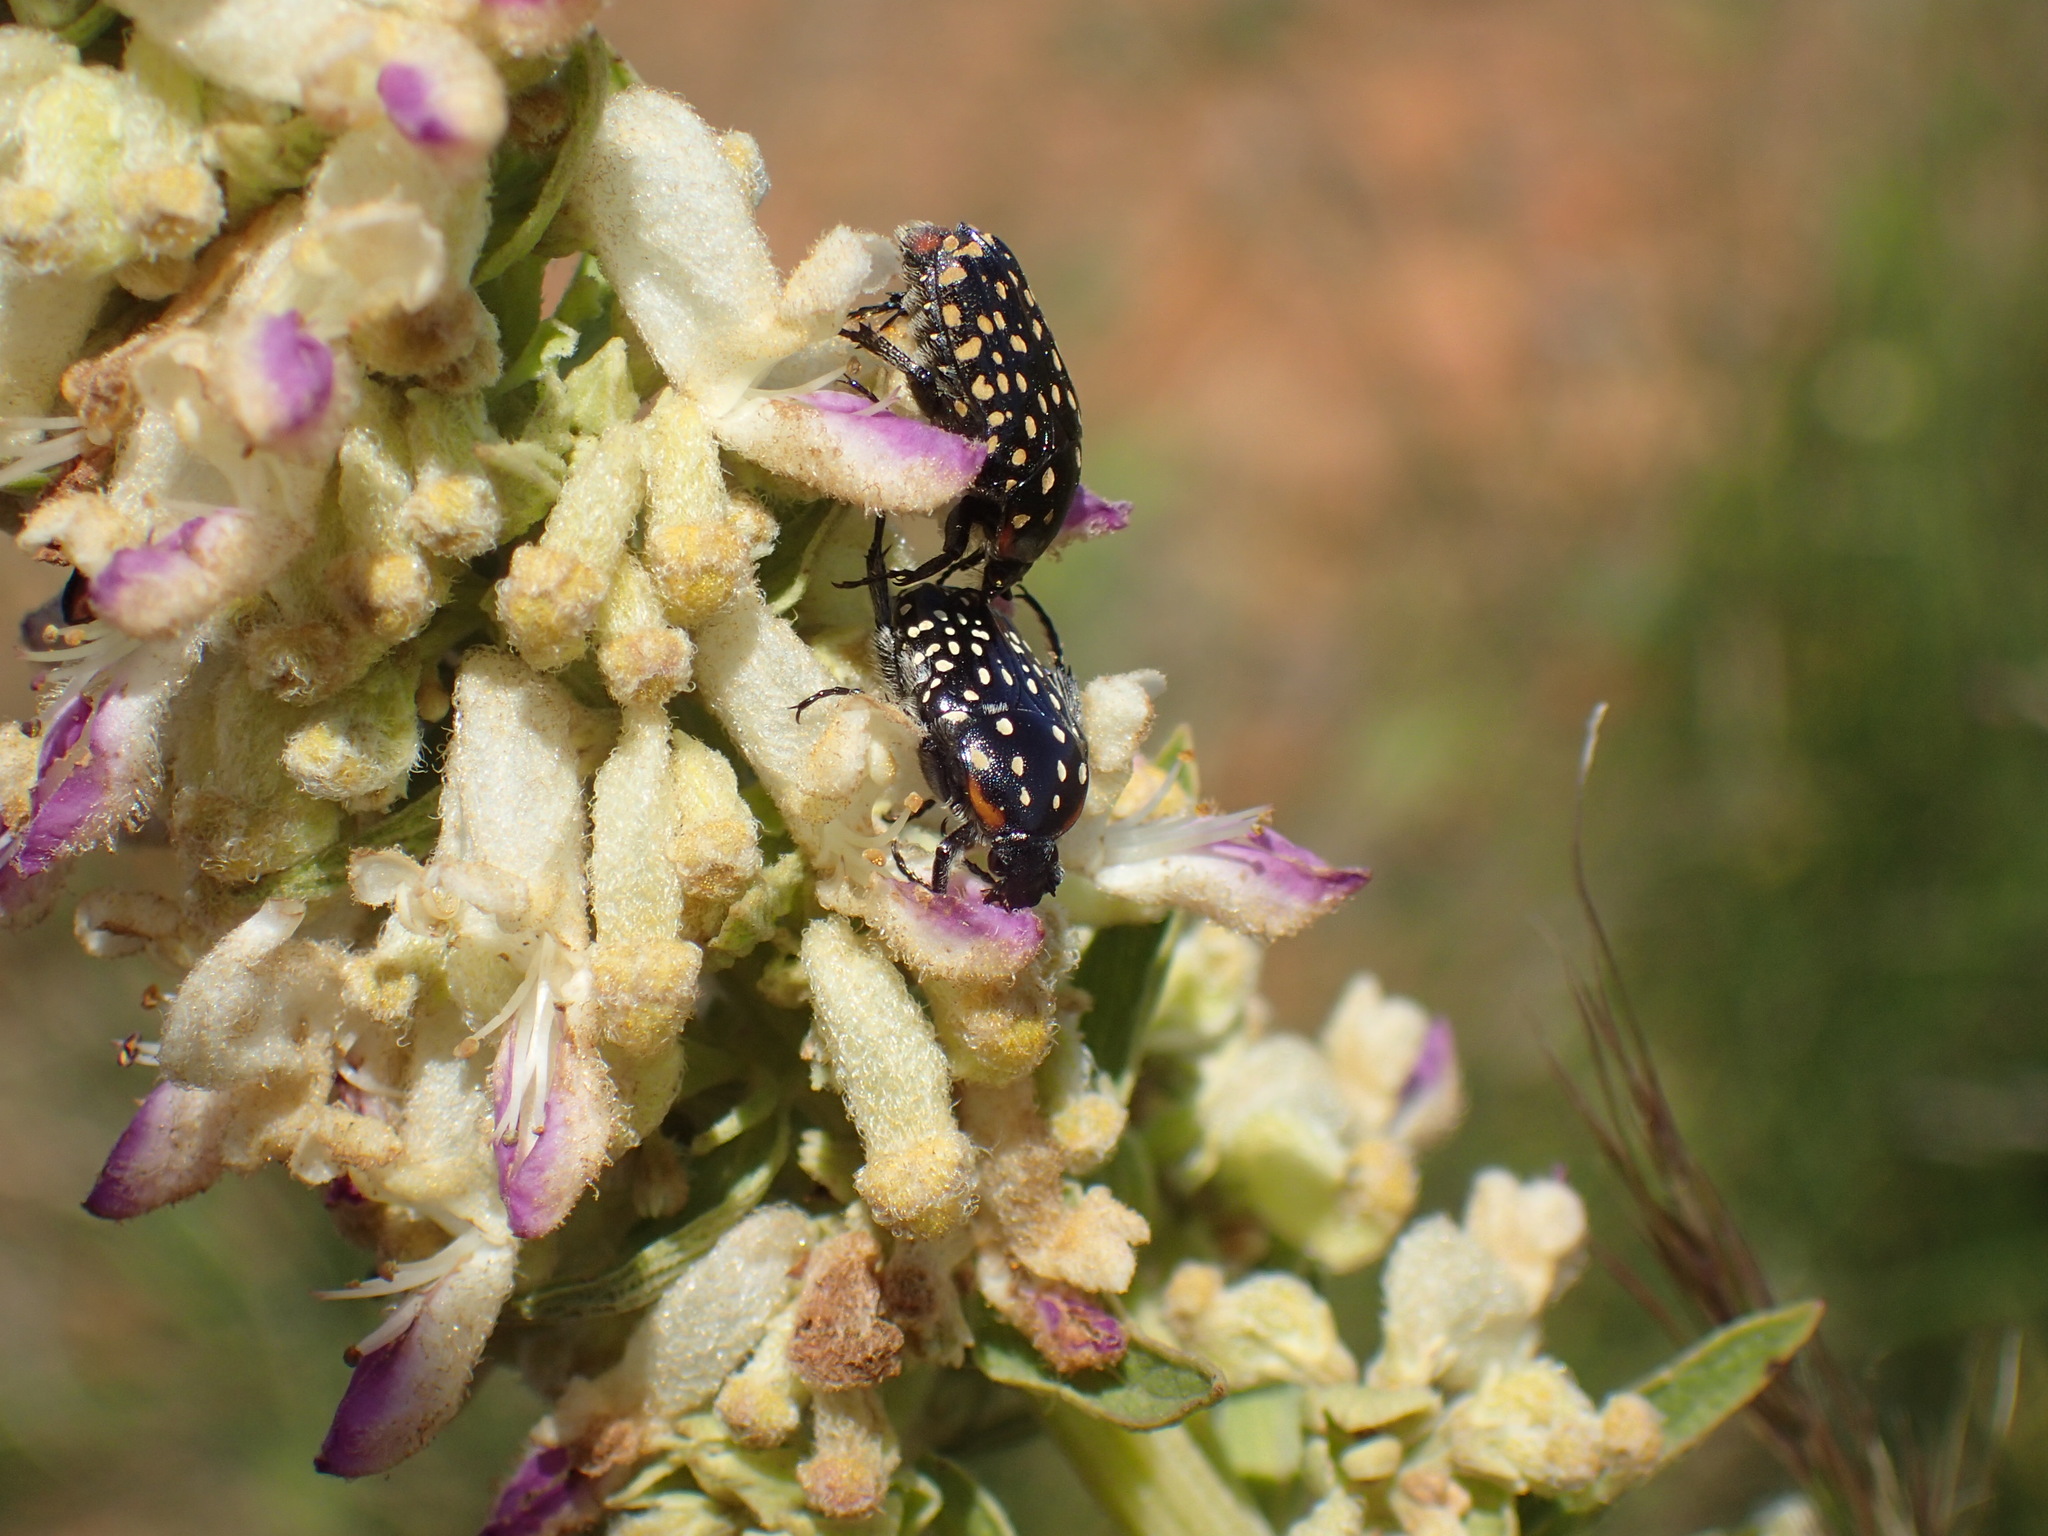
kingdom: Animalia
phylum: Arthropoda
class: Insecta
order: Coleoptera
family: Scarabaeidae
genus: Oxythyrea
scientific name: Oxythyrea
